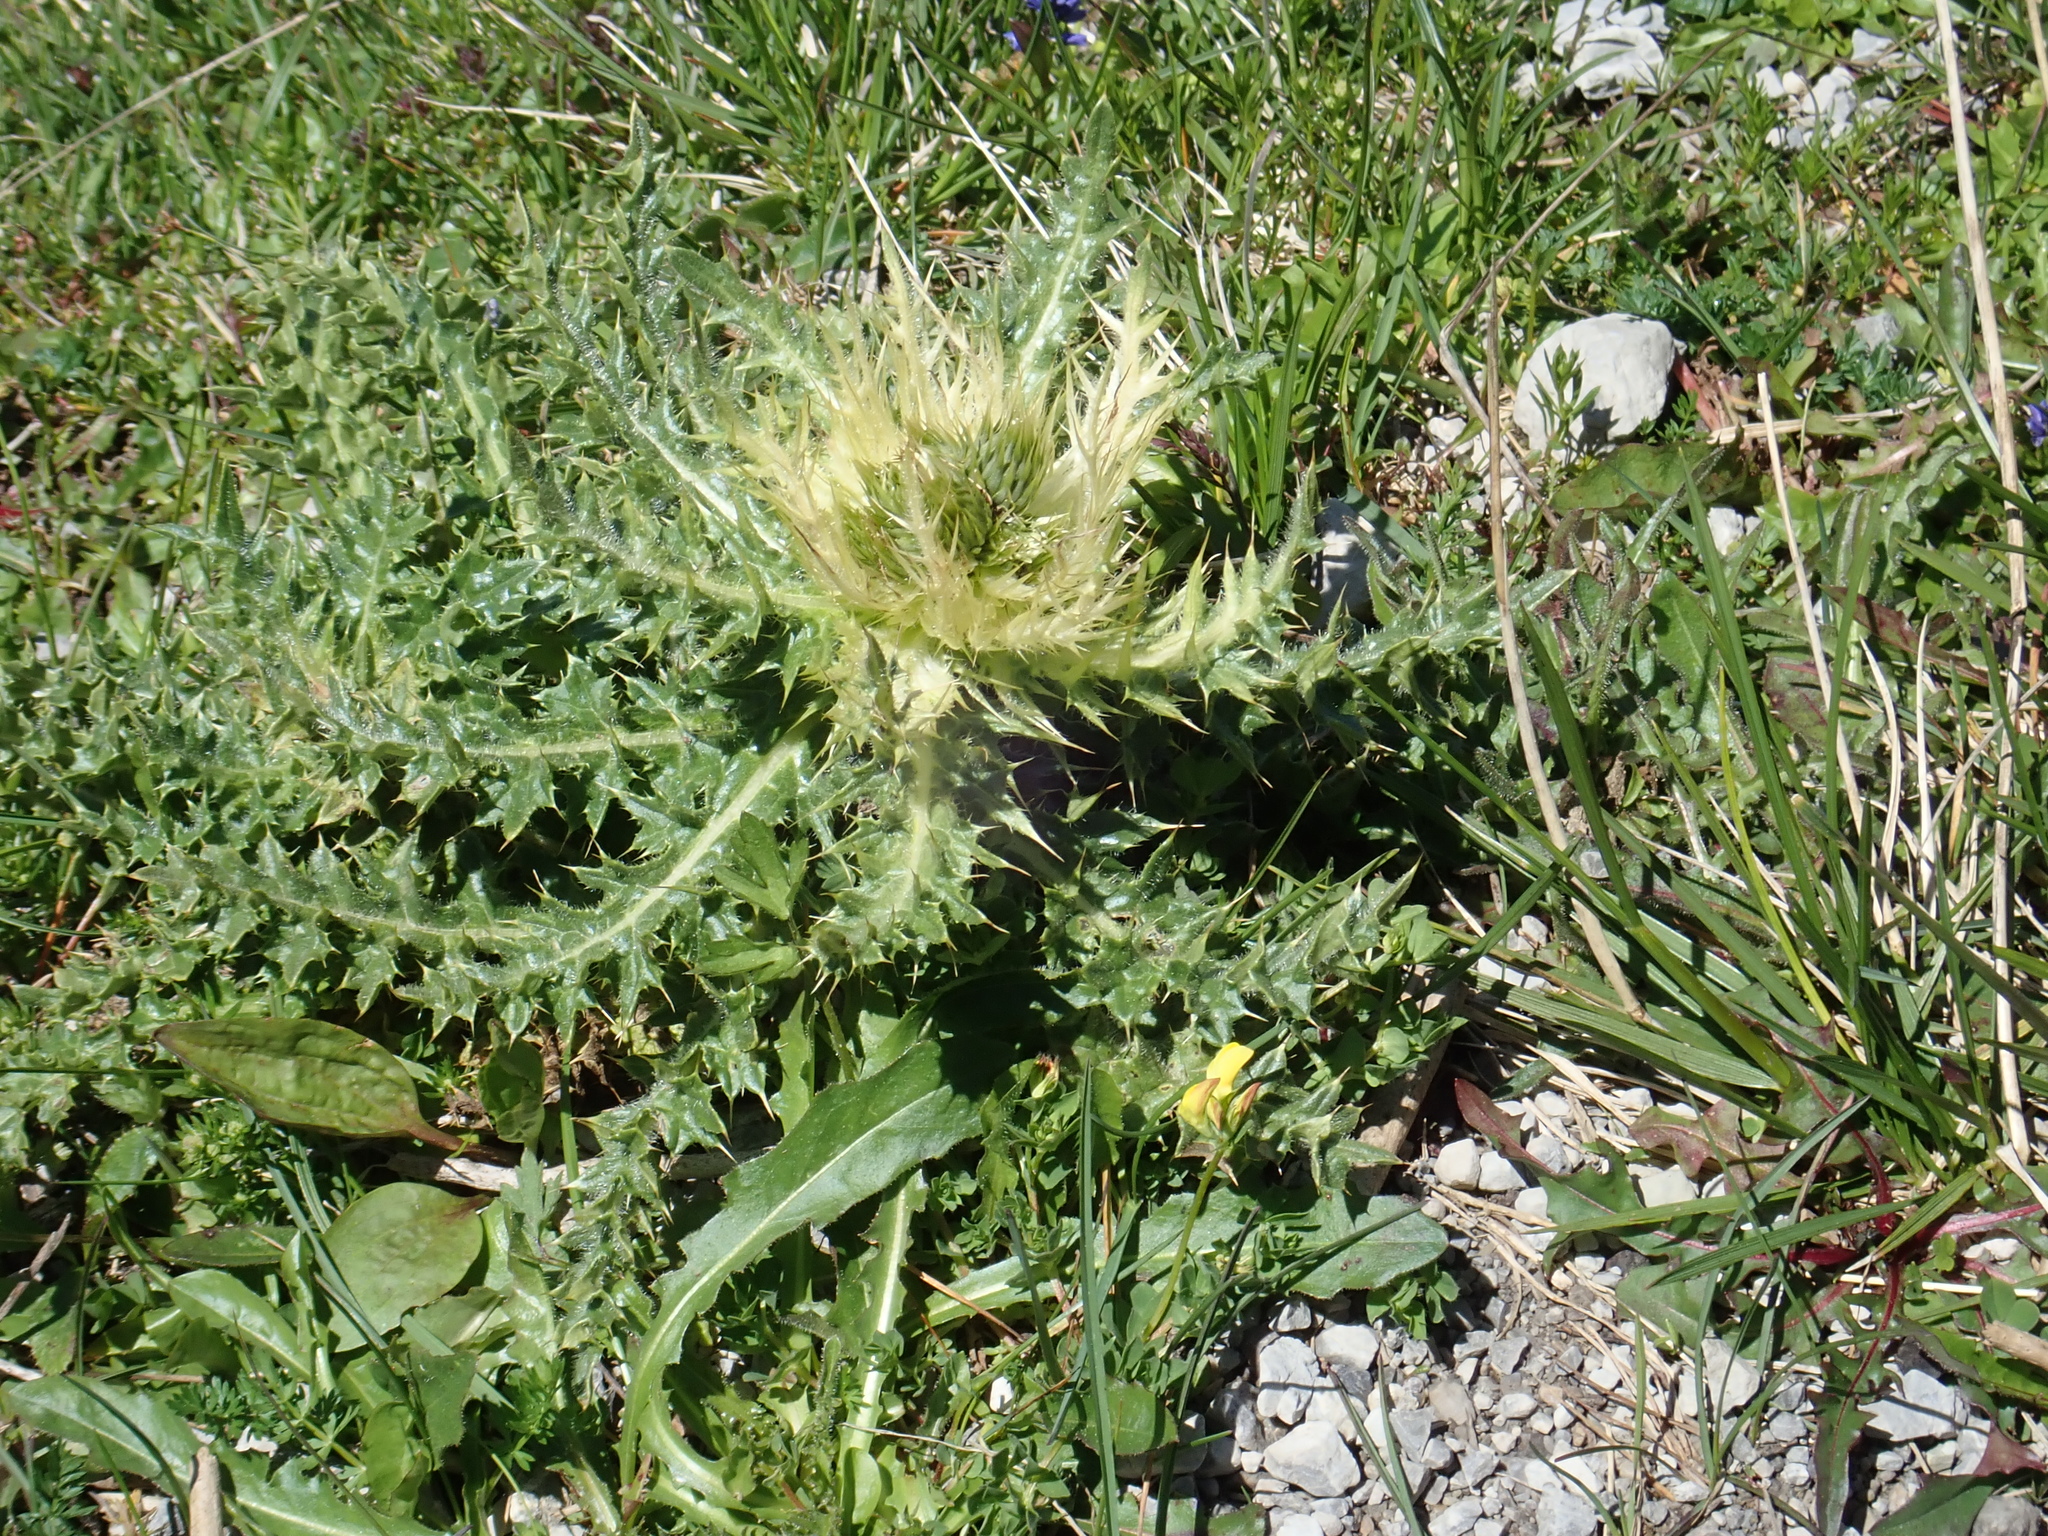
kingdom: Plantae
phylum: Tracheophyta
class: Magnoliopsida
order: Asterales
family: Asteraceae
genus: Cirsium
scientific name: Cirsium spinosissimum
